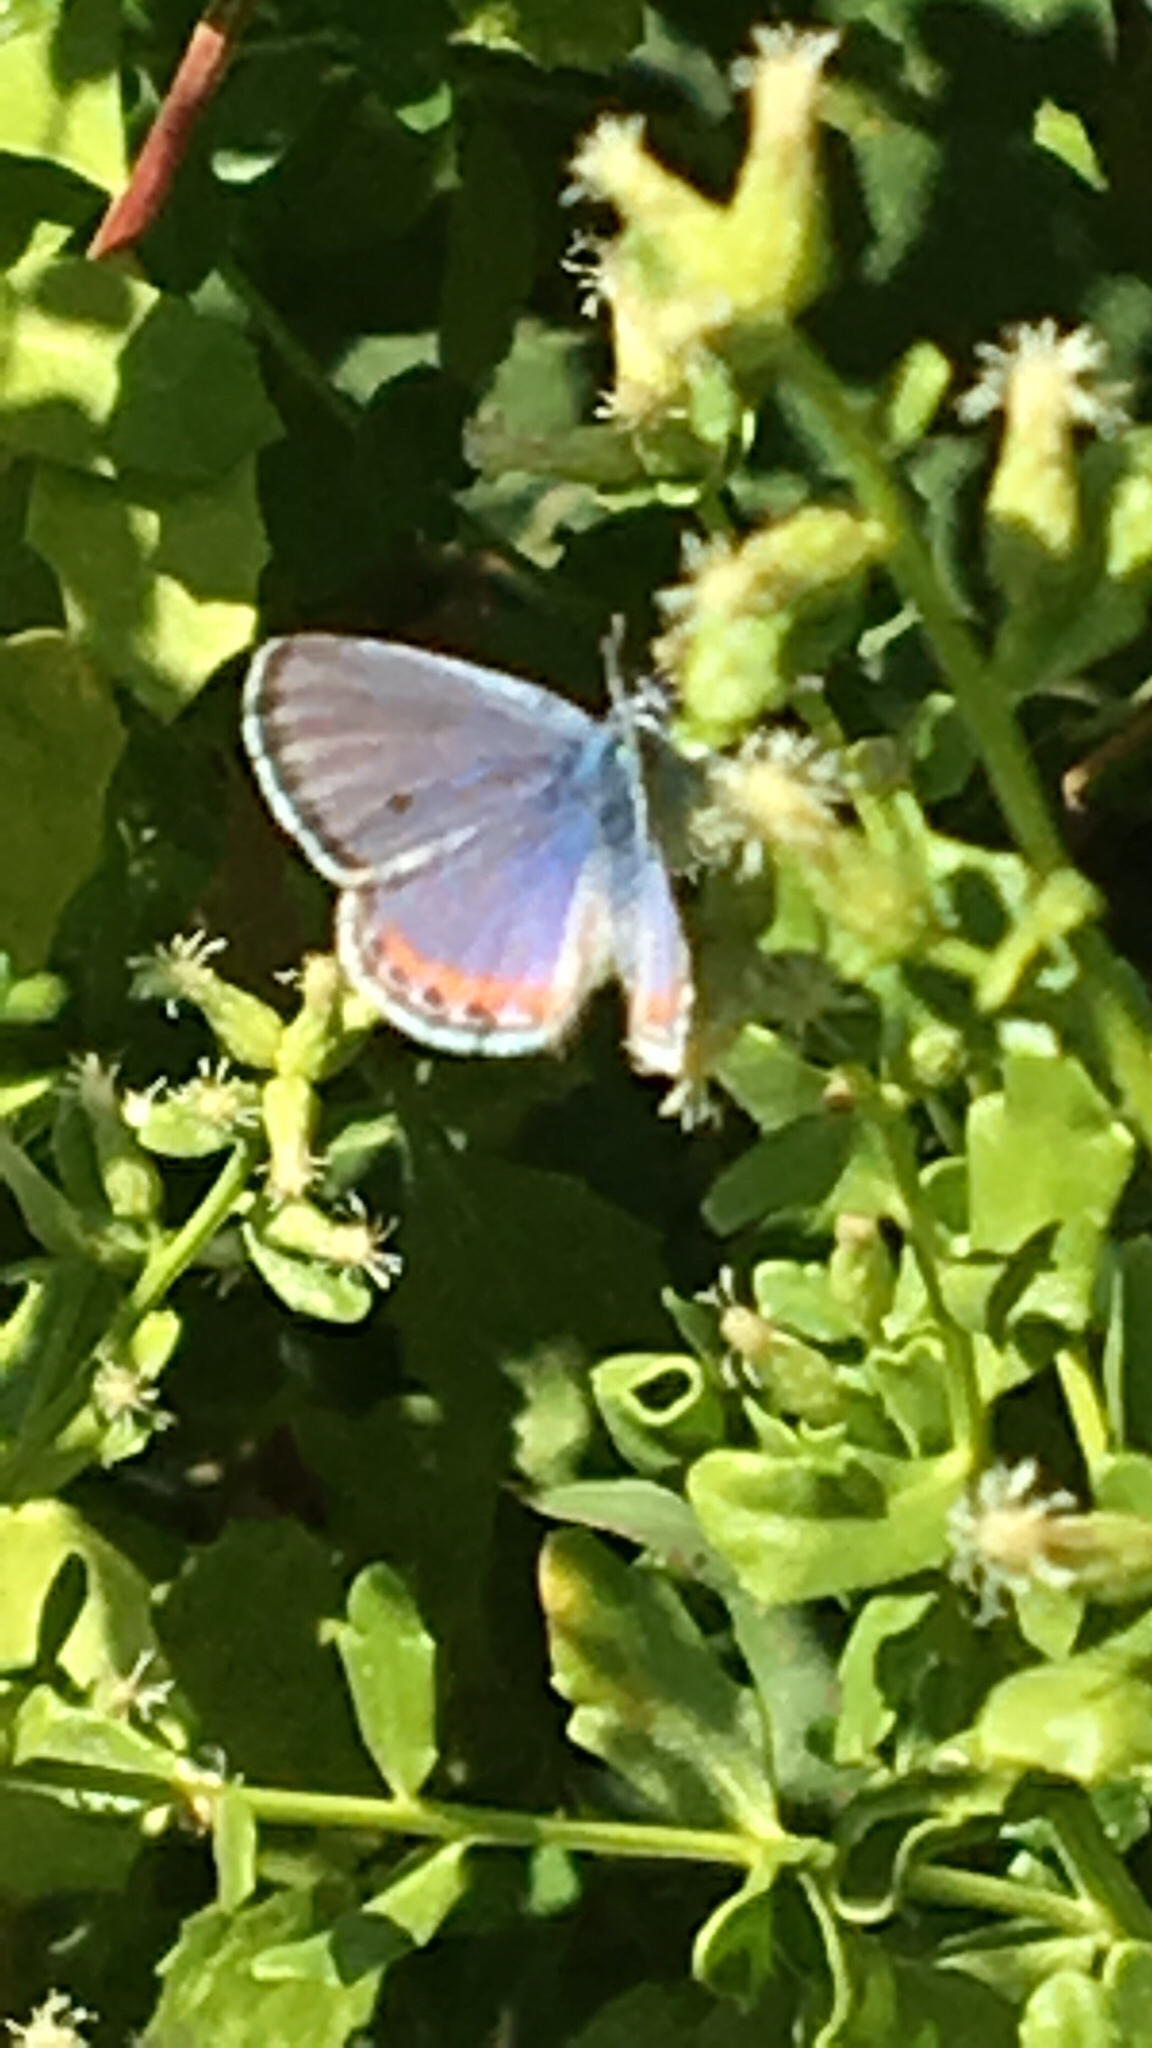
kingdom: Animalia
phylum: Arthropoda
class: Insecta
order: Lepidoptera
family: Lycaenidae
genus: Icaricia
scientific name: Icaricia acmon
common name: Acmon blue
